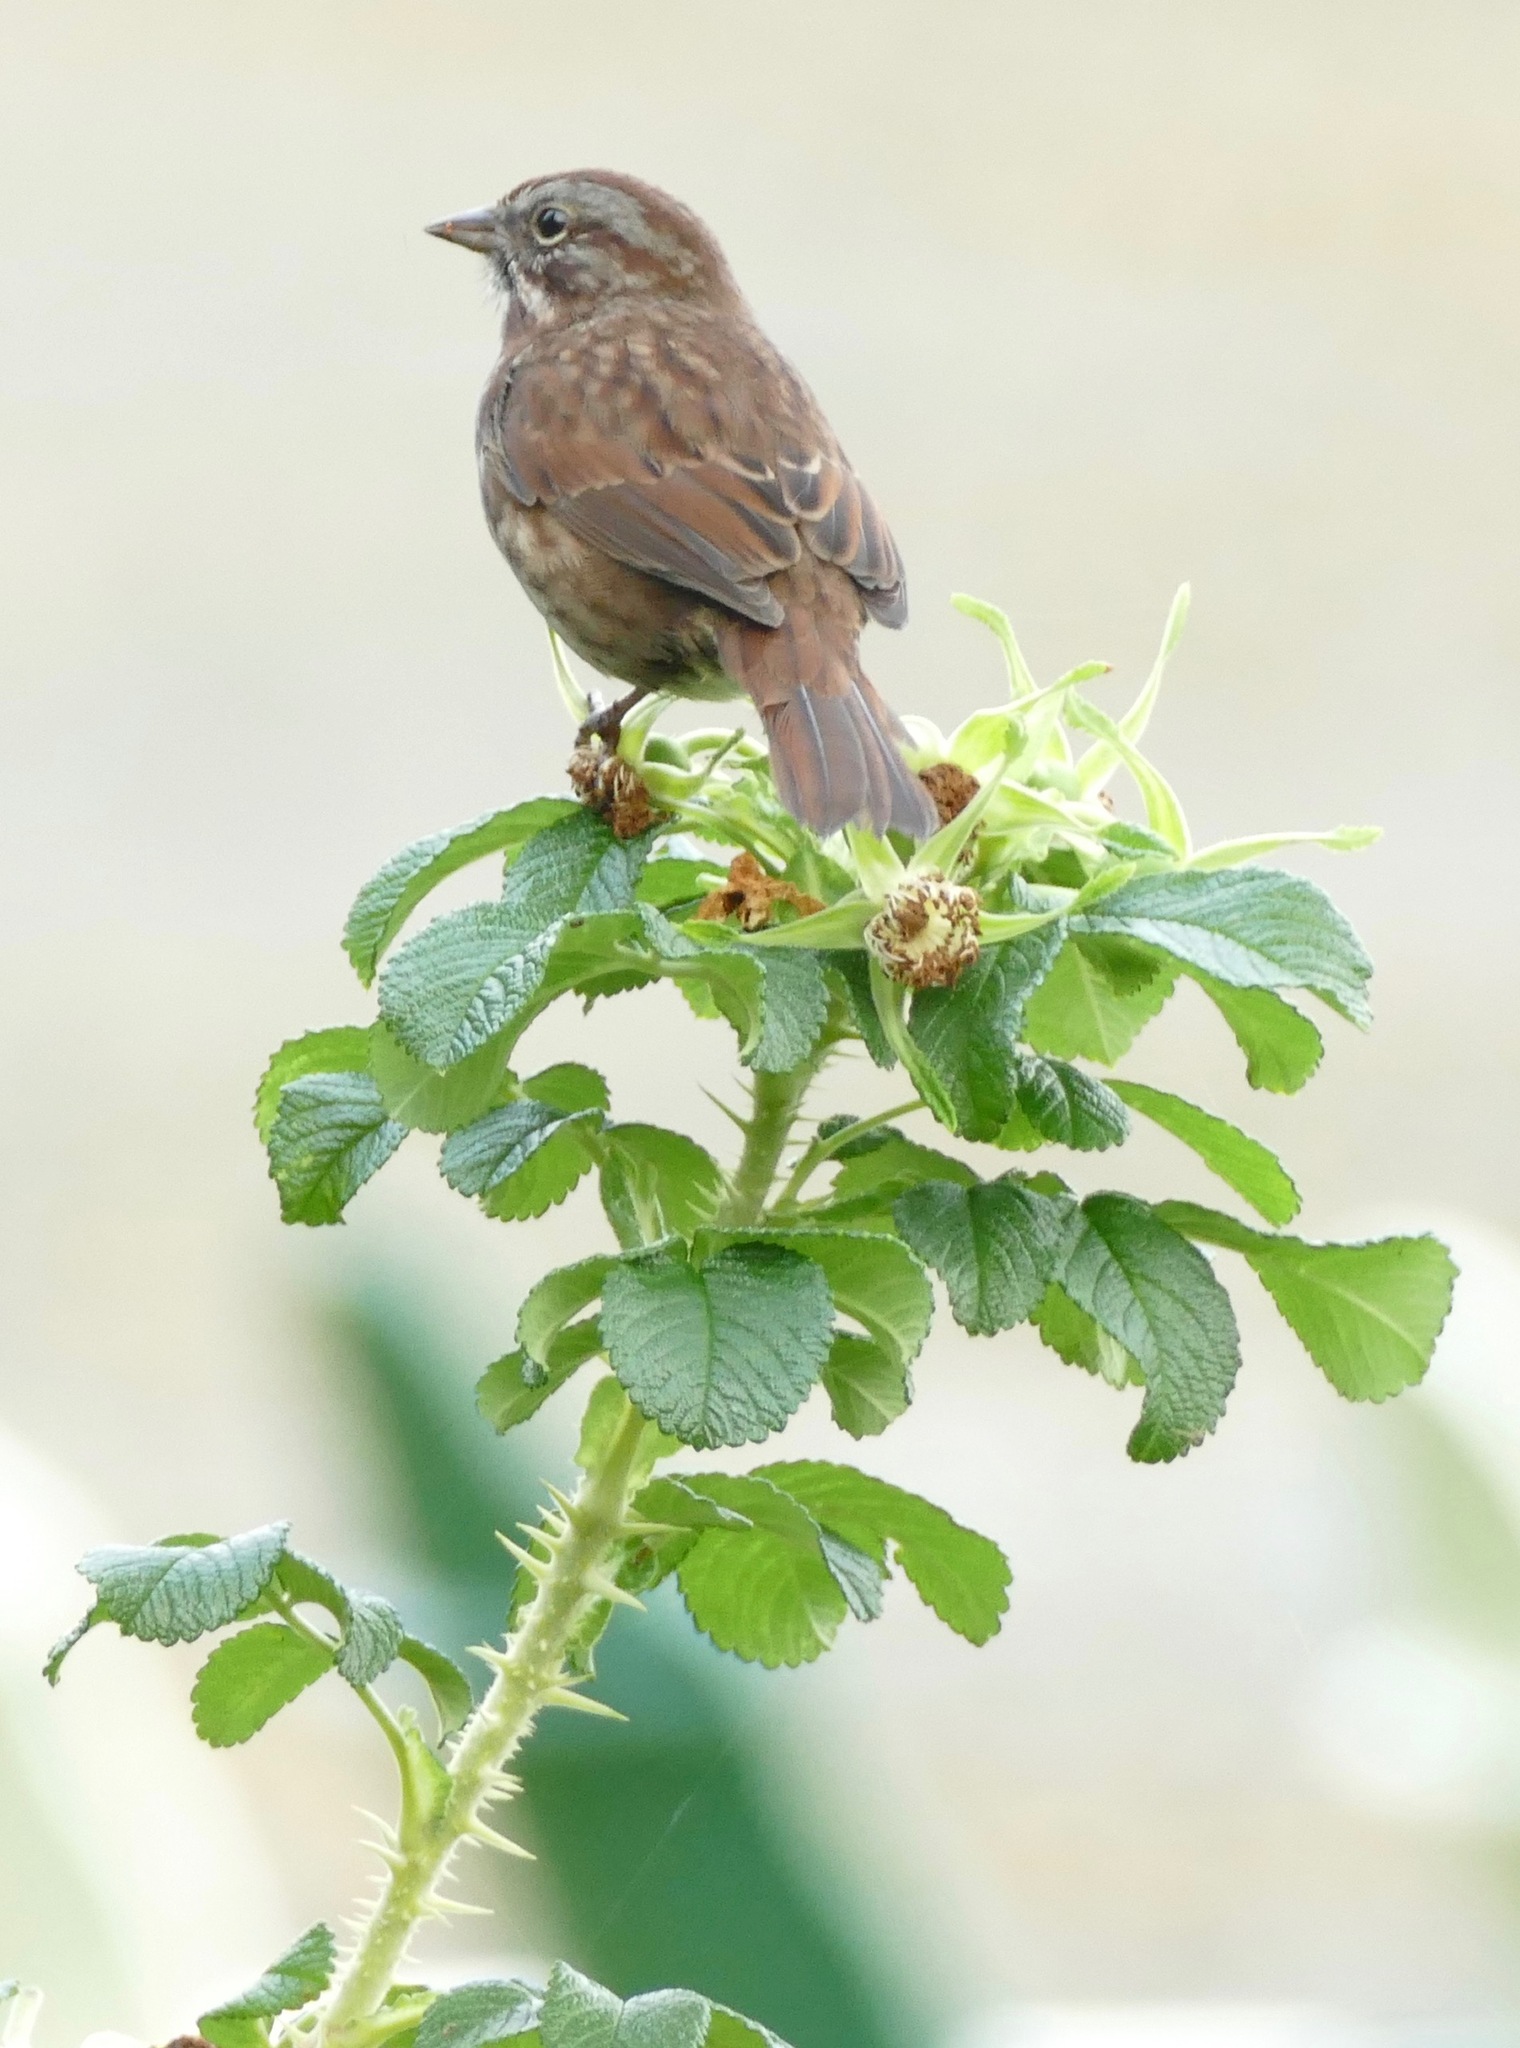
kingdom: Animalia
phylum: Chordata
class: Aves
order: Passeriformes
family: Passerellidae
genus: Melospiza
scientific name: Melospiza melodia
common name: Song sparrow
